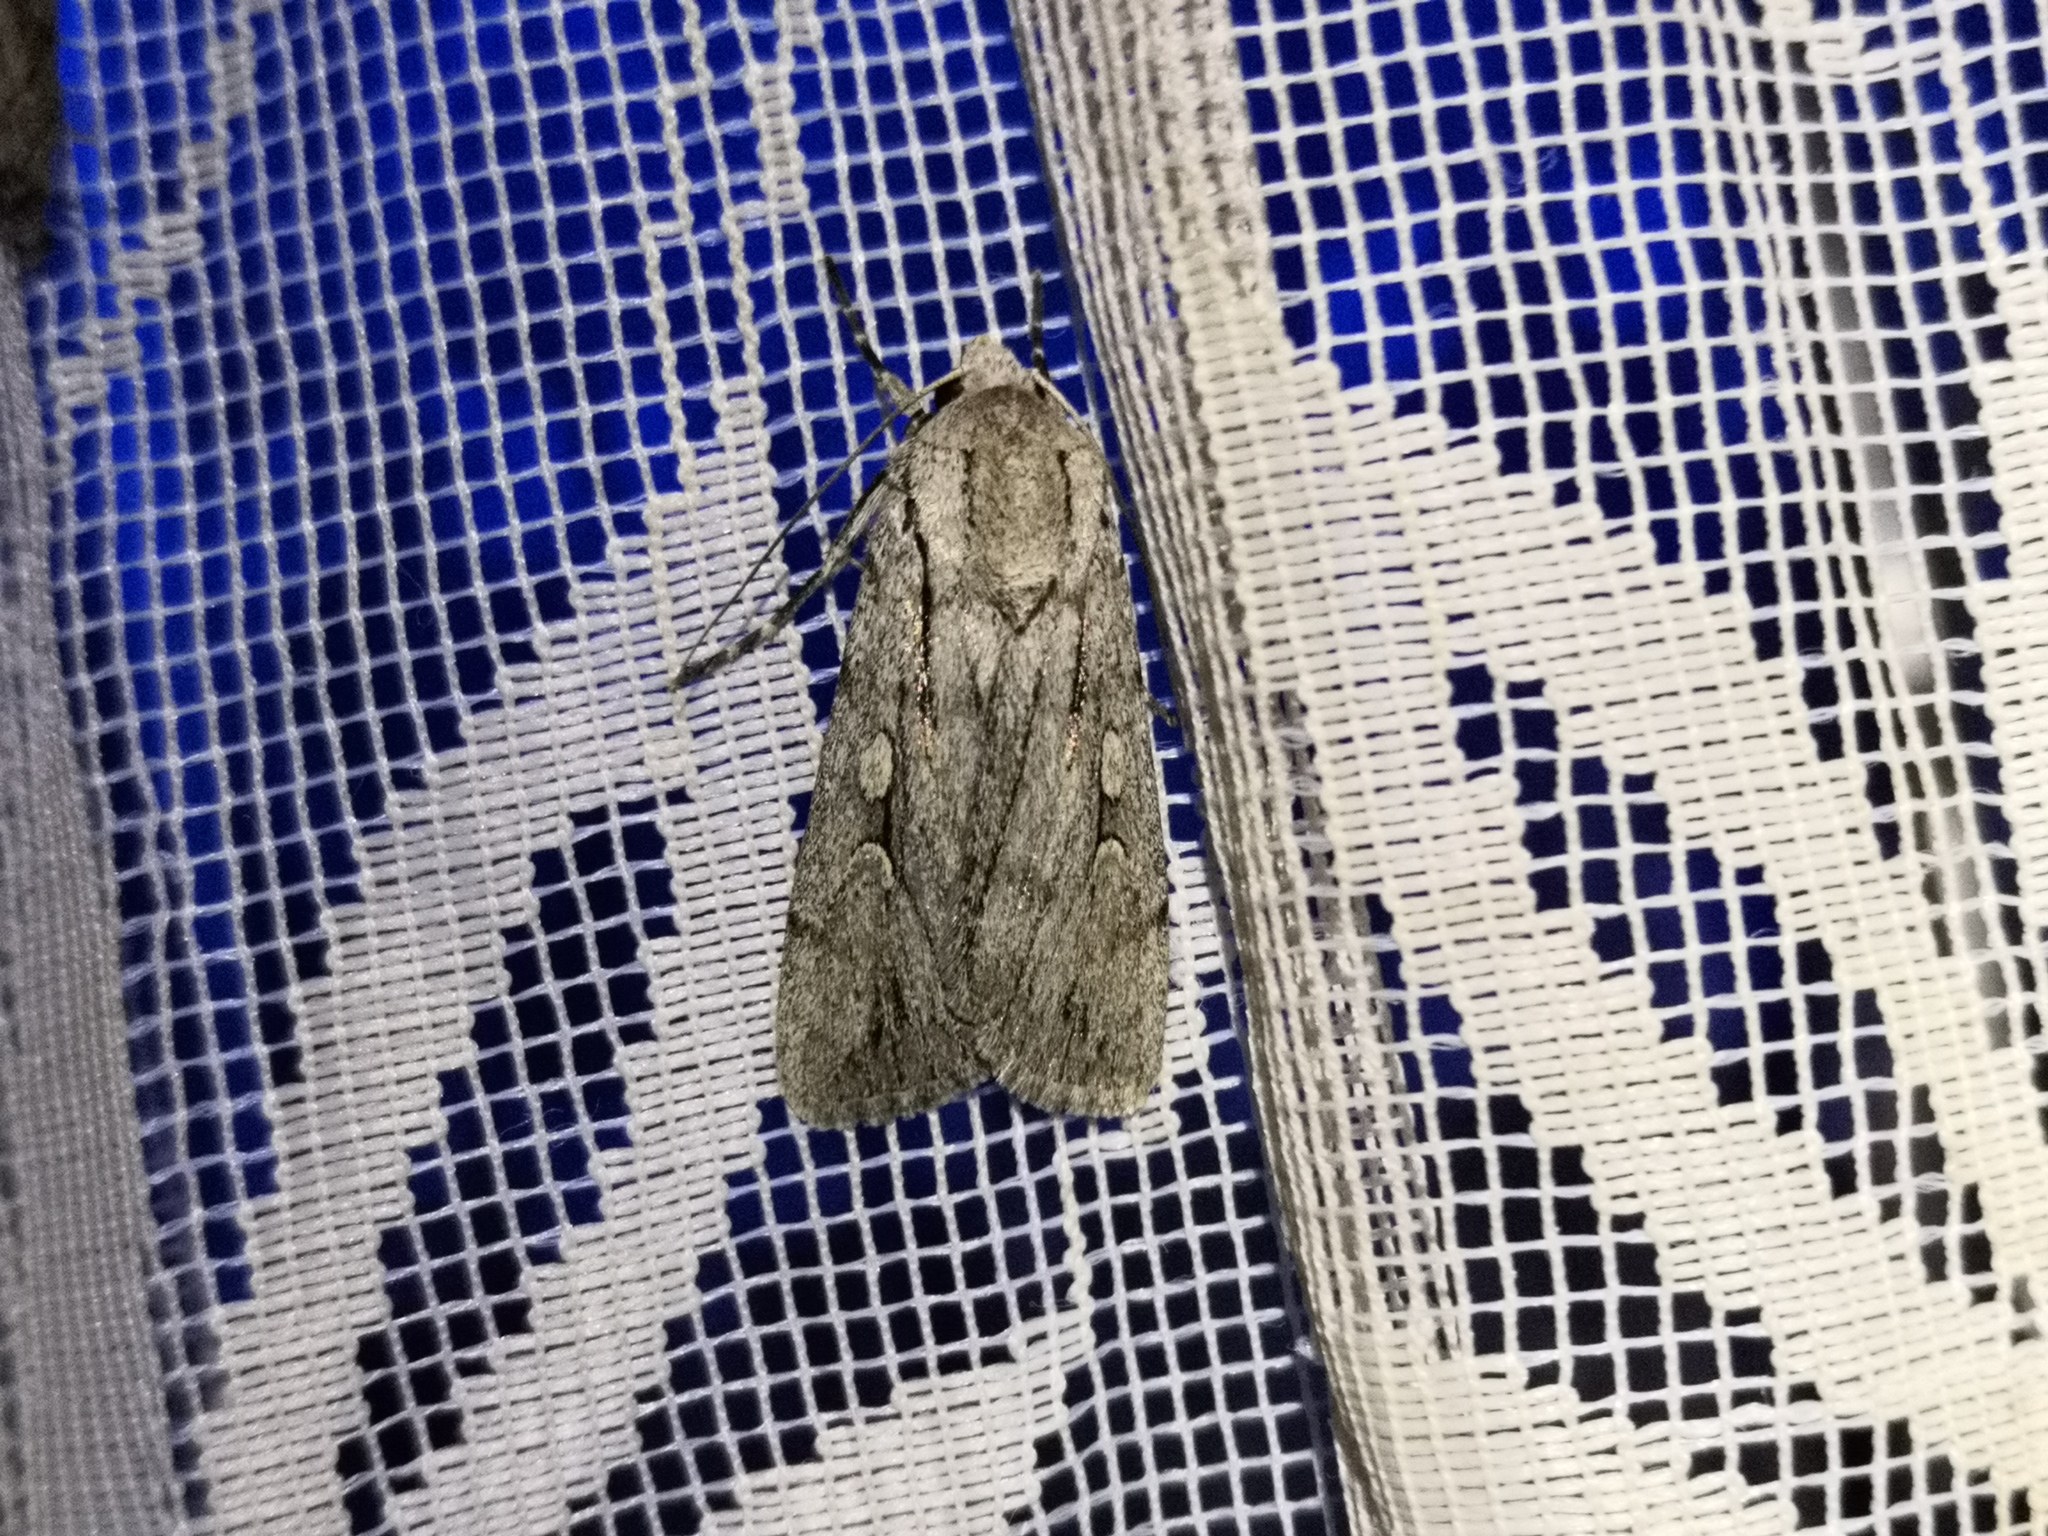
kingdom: Animalia
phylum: Arthropoda
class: Insecta
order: Lepidoptera
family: Noctuidae
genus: Dichagyris
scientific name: Dichagyris candelisequa
